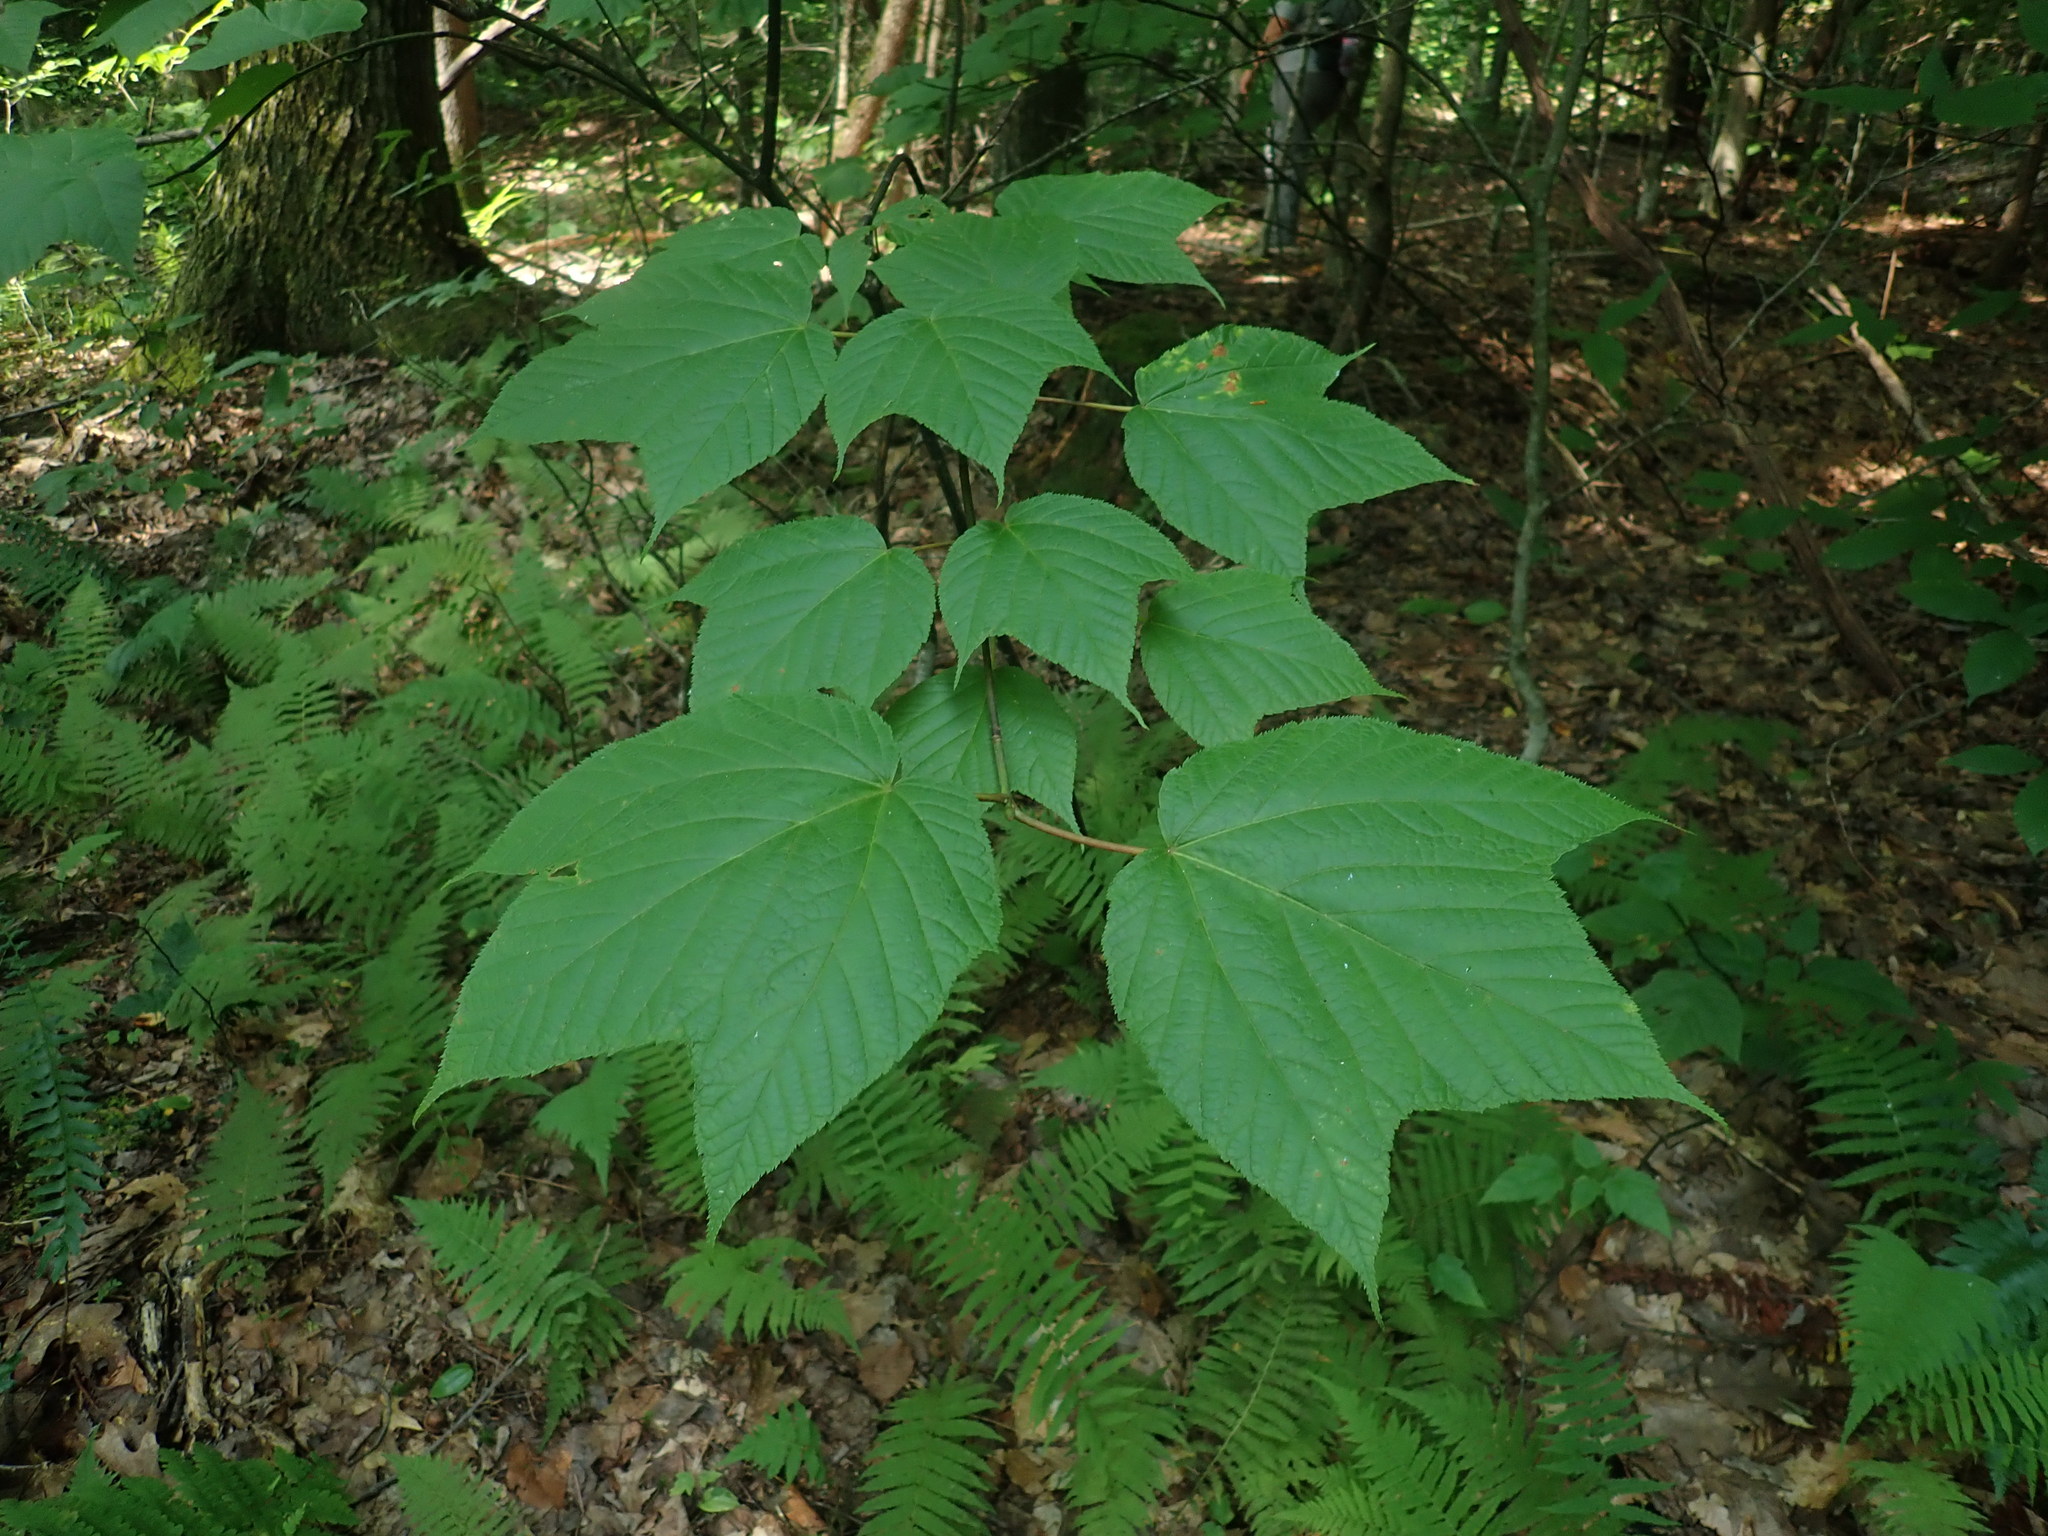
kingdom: Plantae
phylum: Tracheophyta
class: Magnoliopsida
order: Sapindales
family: Sapindaceae
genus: Acer
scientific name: Acer pensylvanicum
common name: Moosewood
